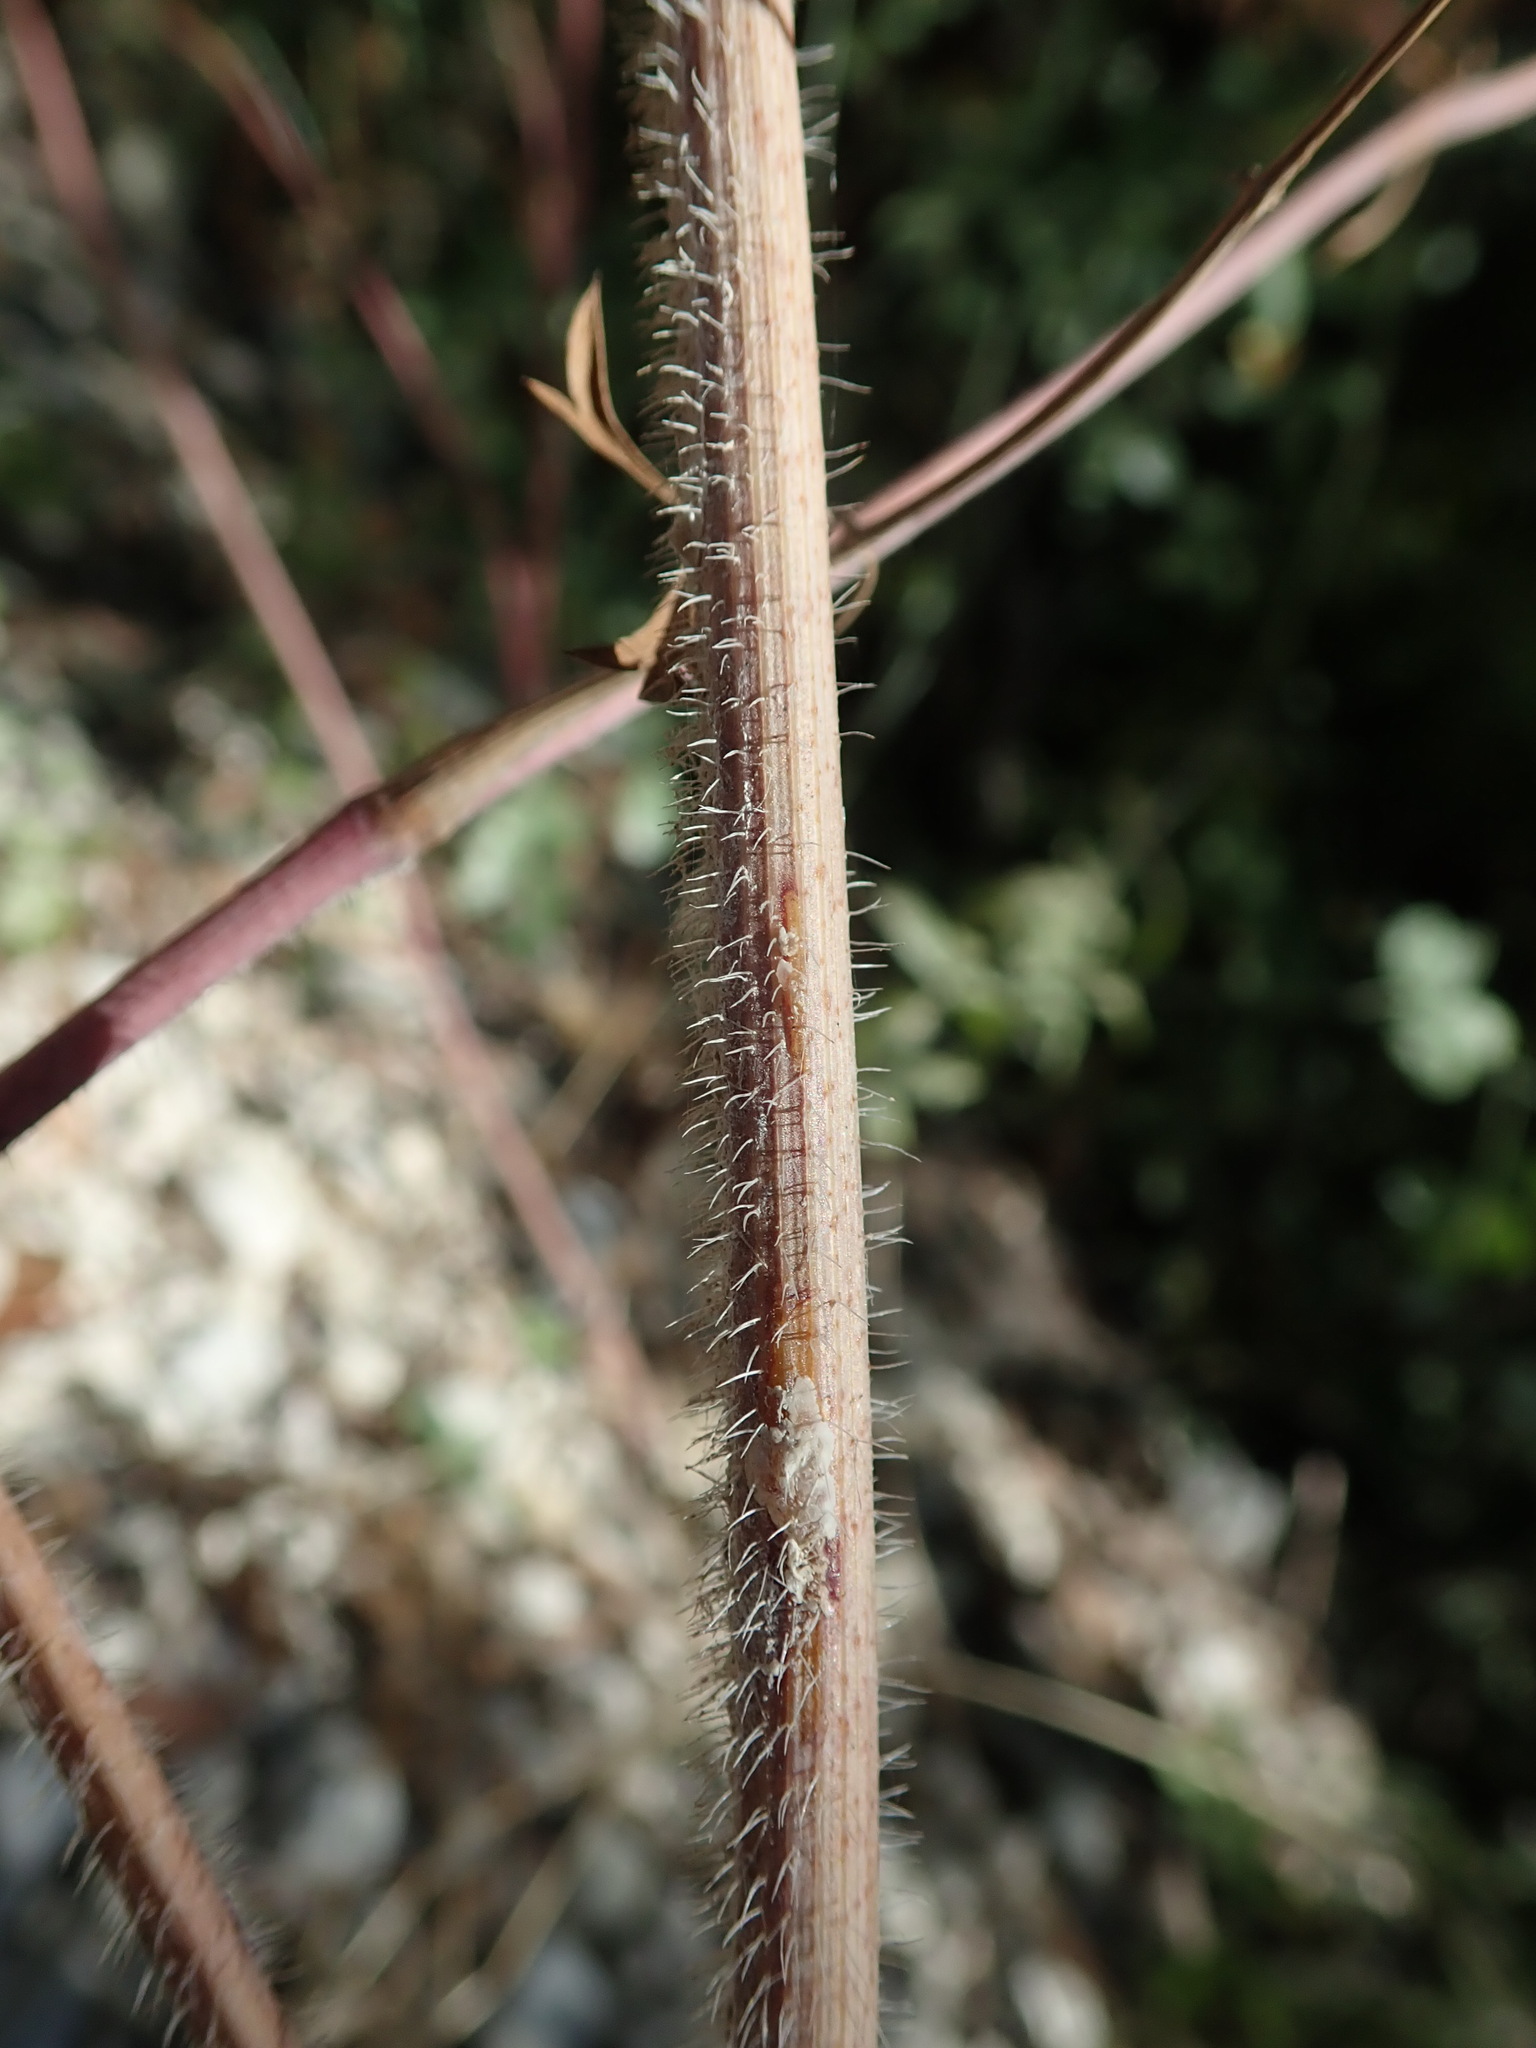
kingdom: Plantae
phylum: Tracheophyta
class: Magnoliopsida
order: Apiales
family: Apiaceae
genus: Daucus
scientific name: Daucus carota
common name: Wild carrot
